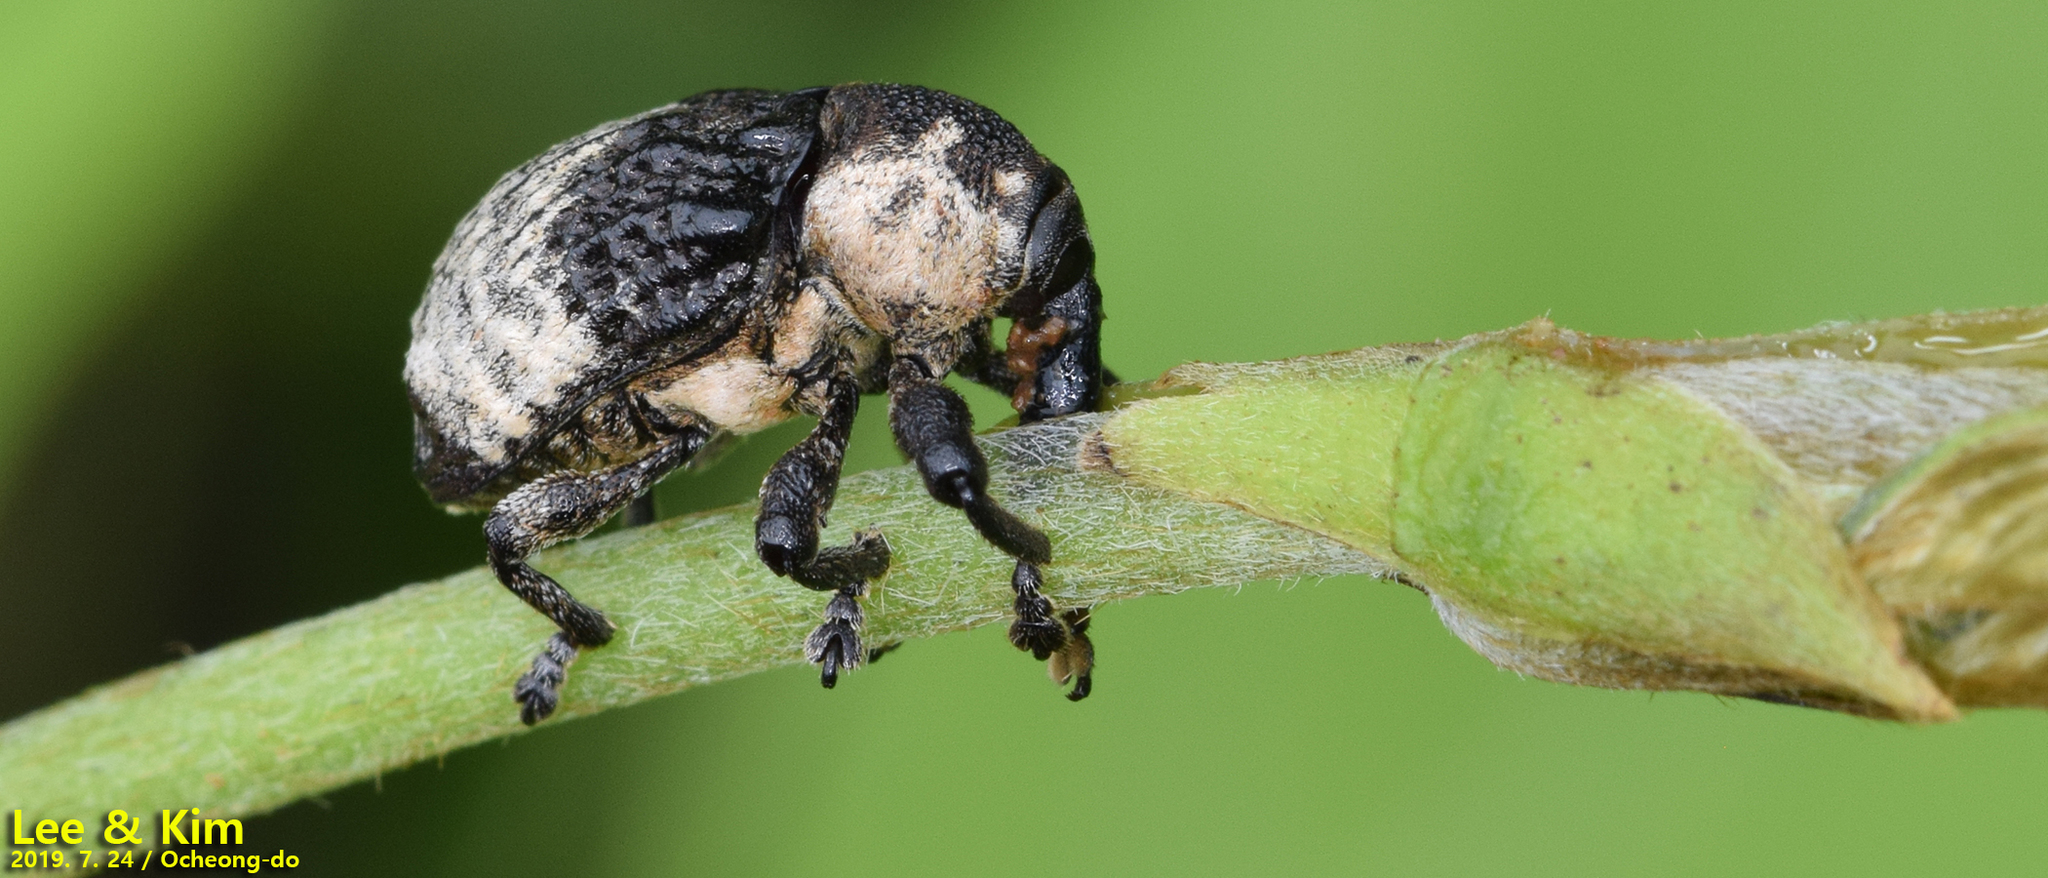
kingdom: Animalia
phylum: Arthropoda
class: Insecta
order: Coleoptera
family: Curculionidae
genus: Alcides
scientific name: Alcides trifidus
